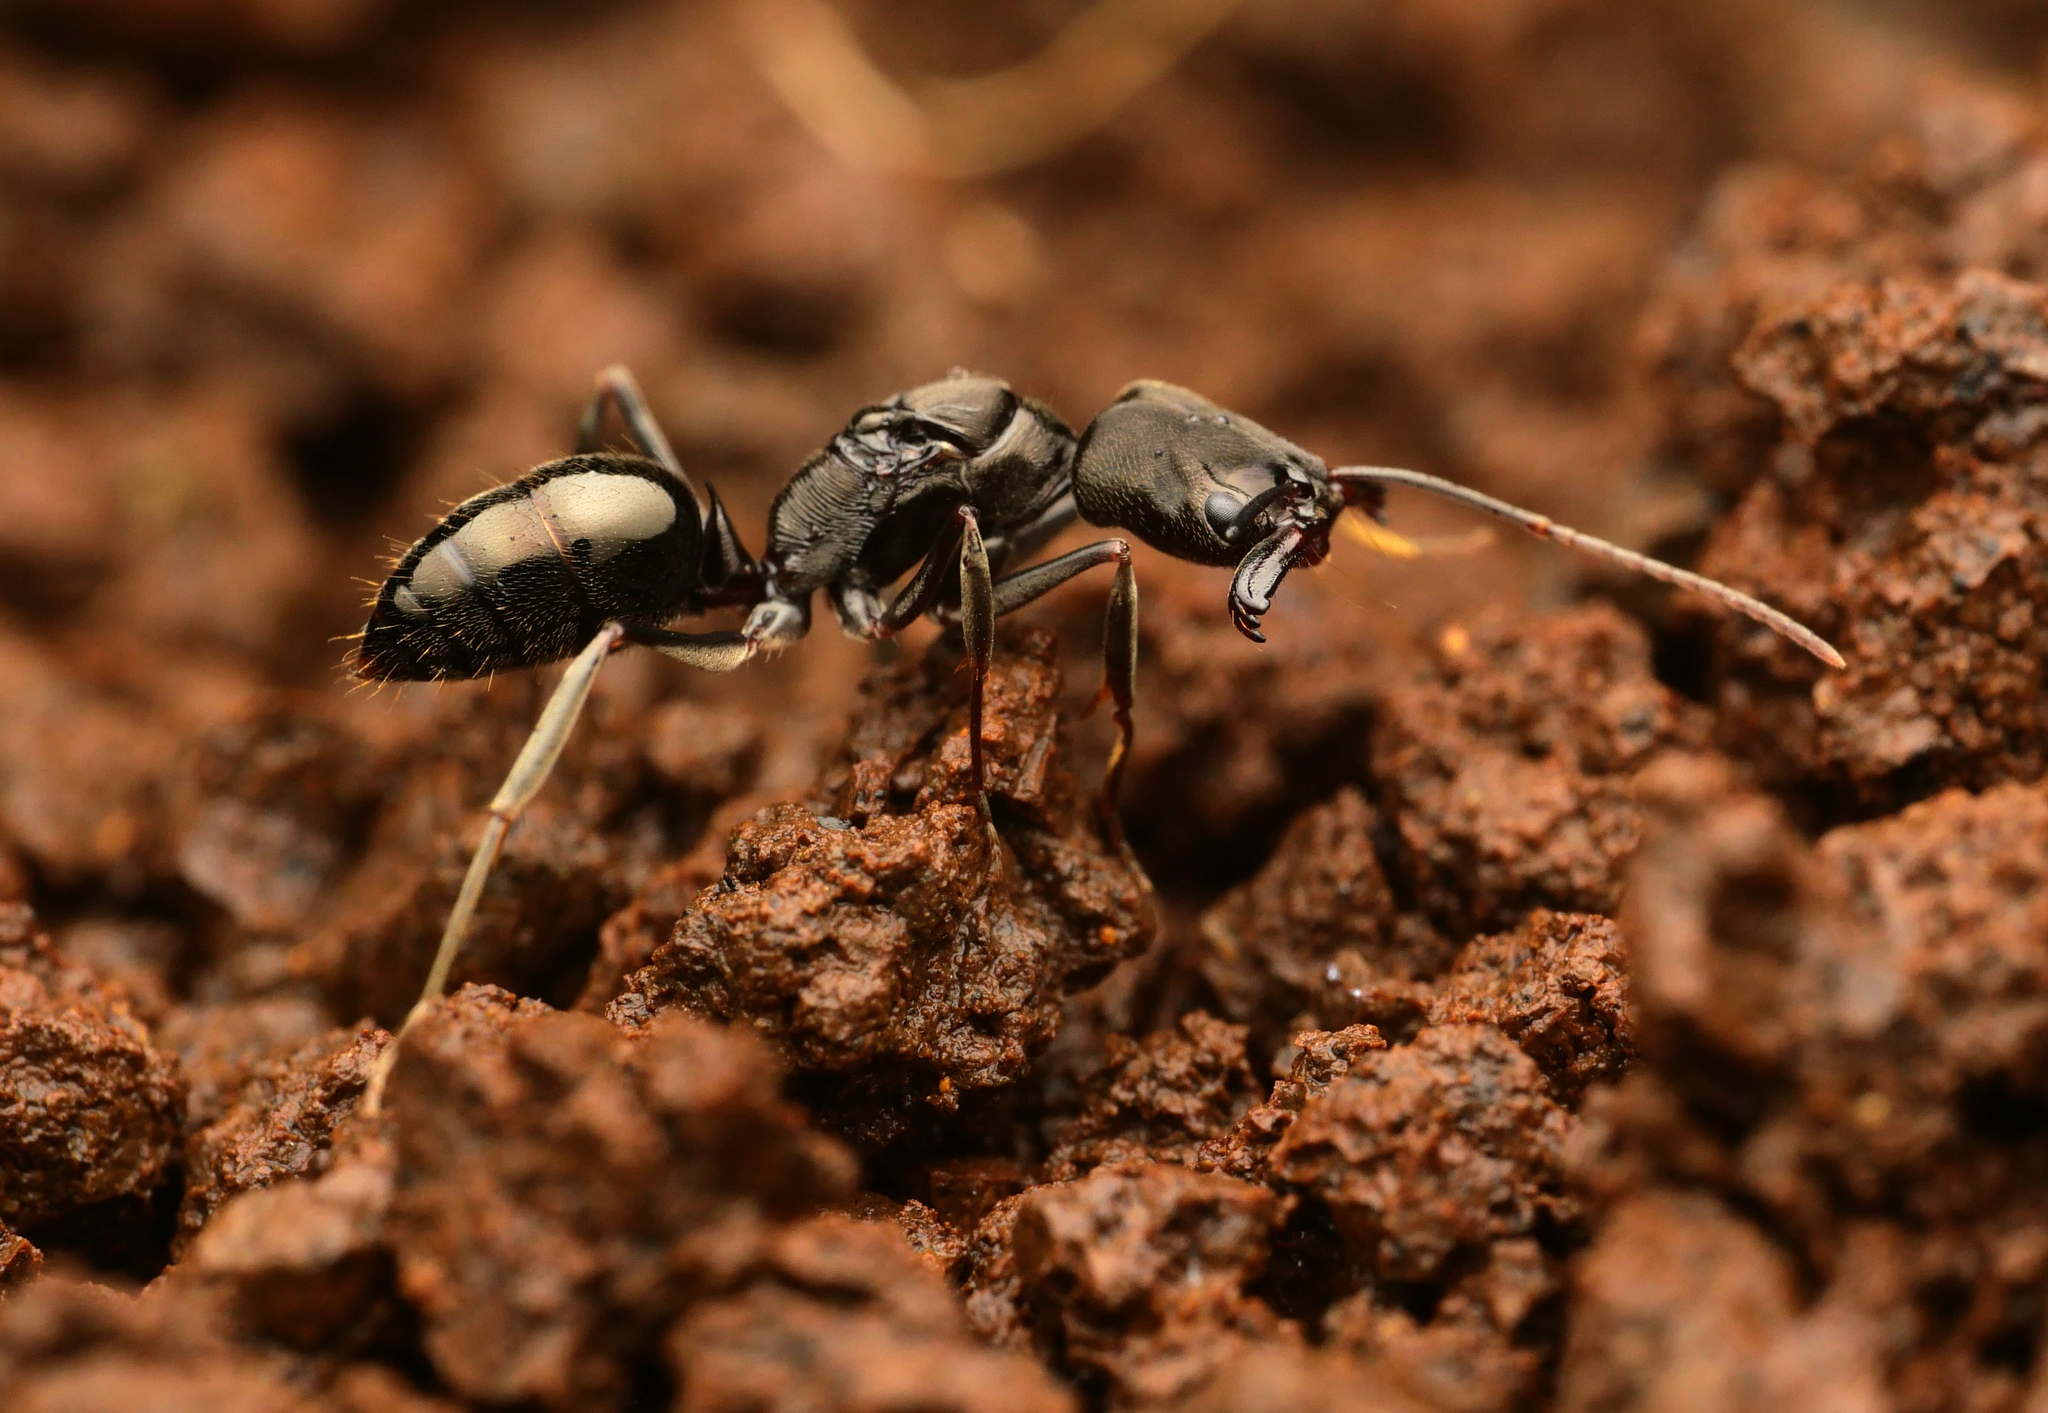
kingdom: Animalia
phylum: Arthropoda
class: Insecta
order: Hymenoptera
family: Formicidae
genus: Odontomachus
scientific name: Odontomachus simillimus
